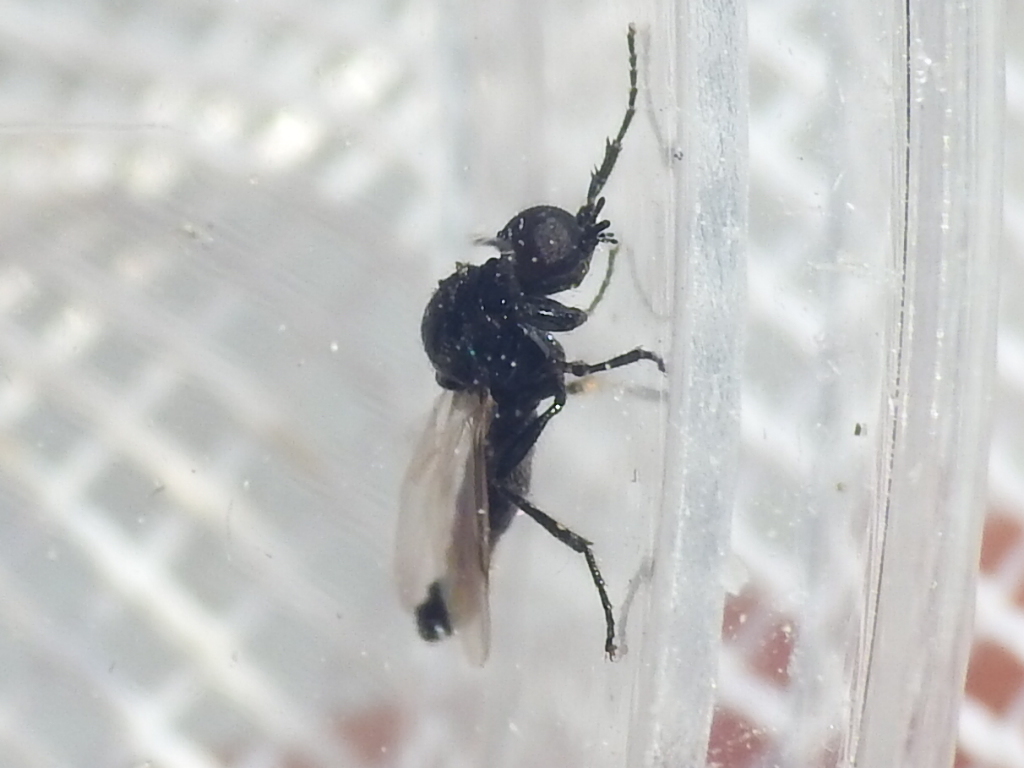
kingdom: Animalia
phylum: Arthropoda
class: Insecta
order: Diptera
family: Bibionidae
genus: Dilophus
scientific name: Dilophus
